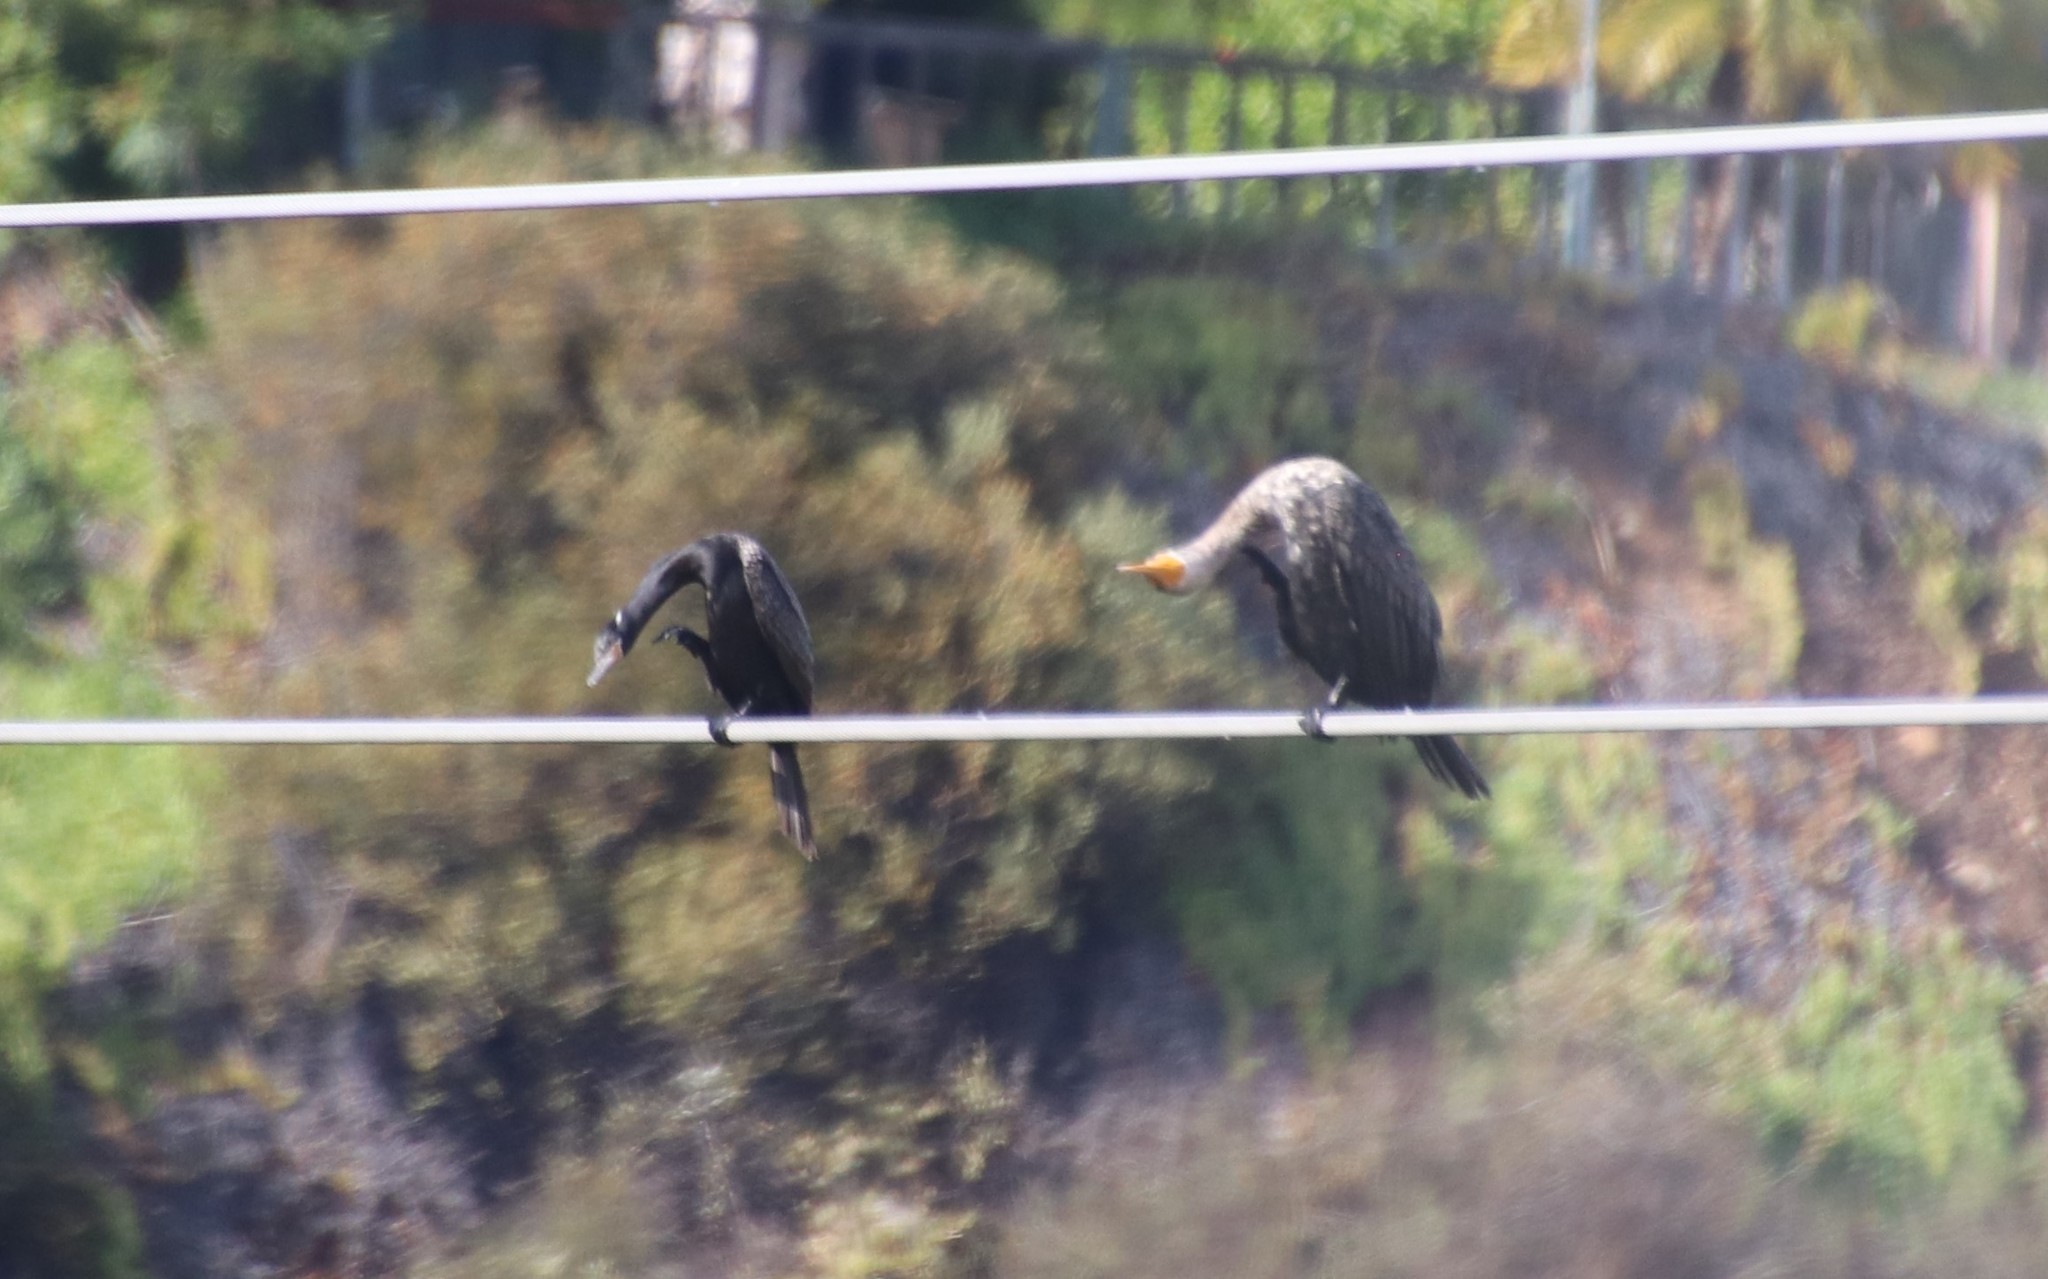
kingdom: Animalia
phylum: Chordata
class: Aves
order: Suliformes
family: Phalacrocoracidae
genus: Phalacrocorax
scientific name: Phalacrocorax brasilianus
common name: Neotropic cormorant
